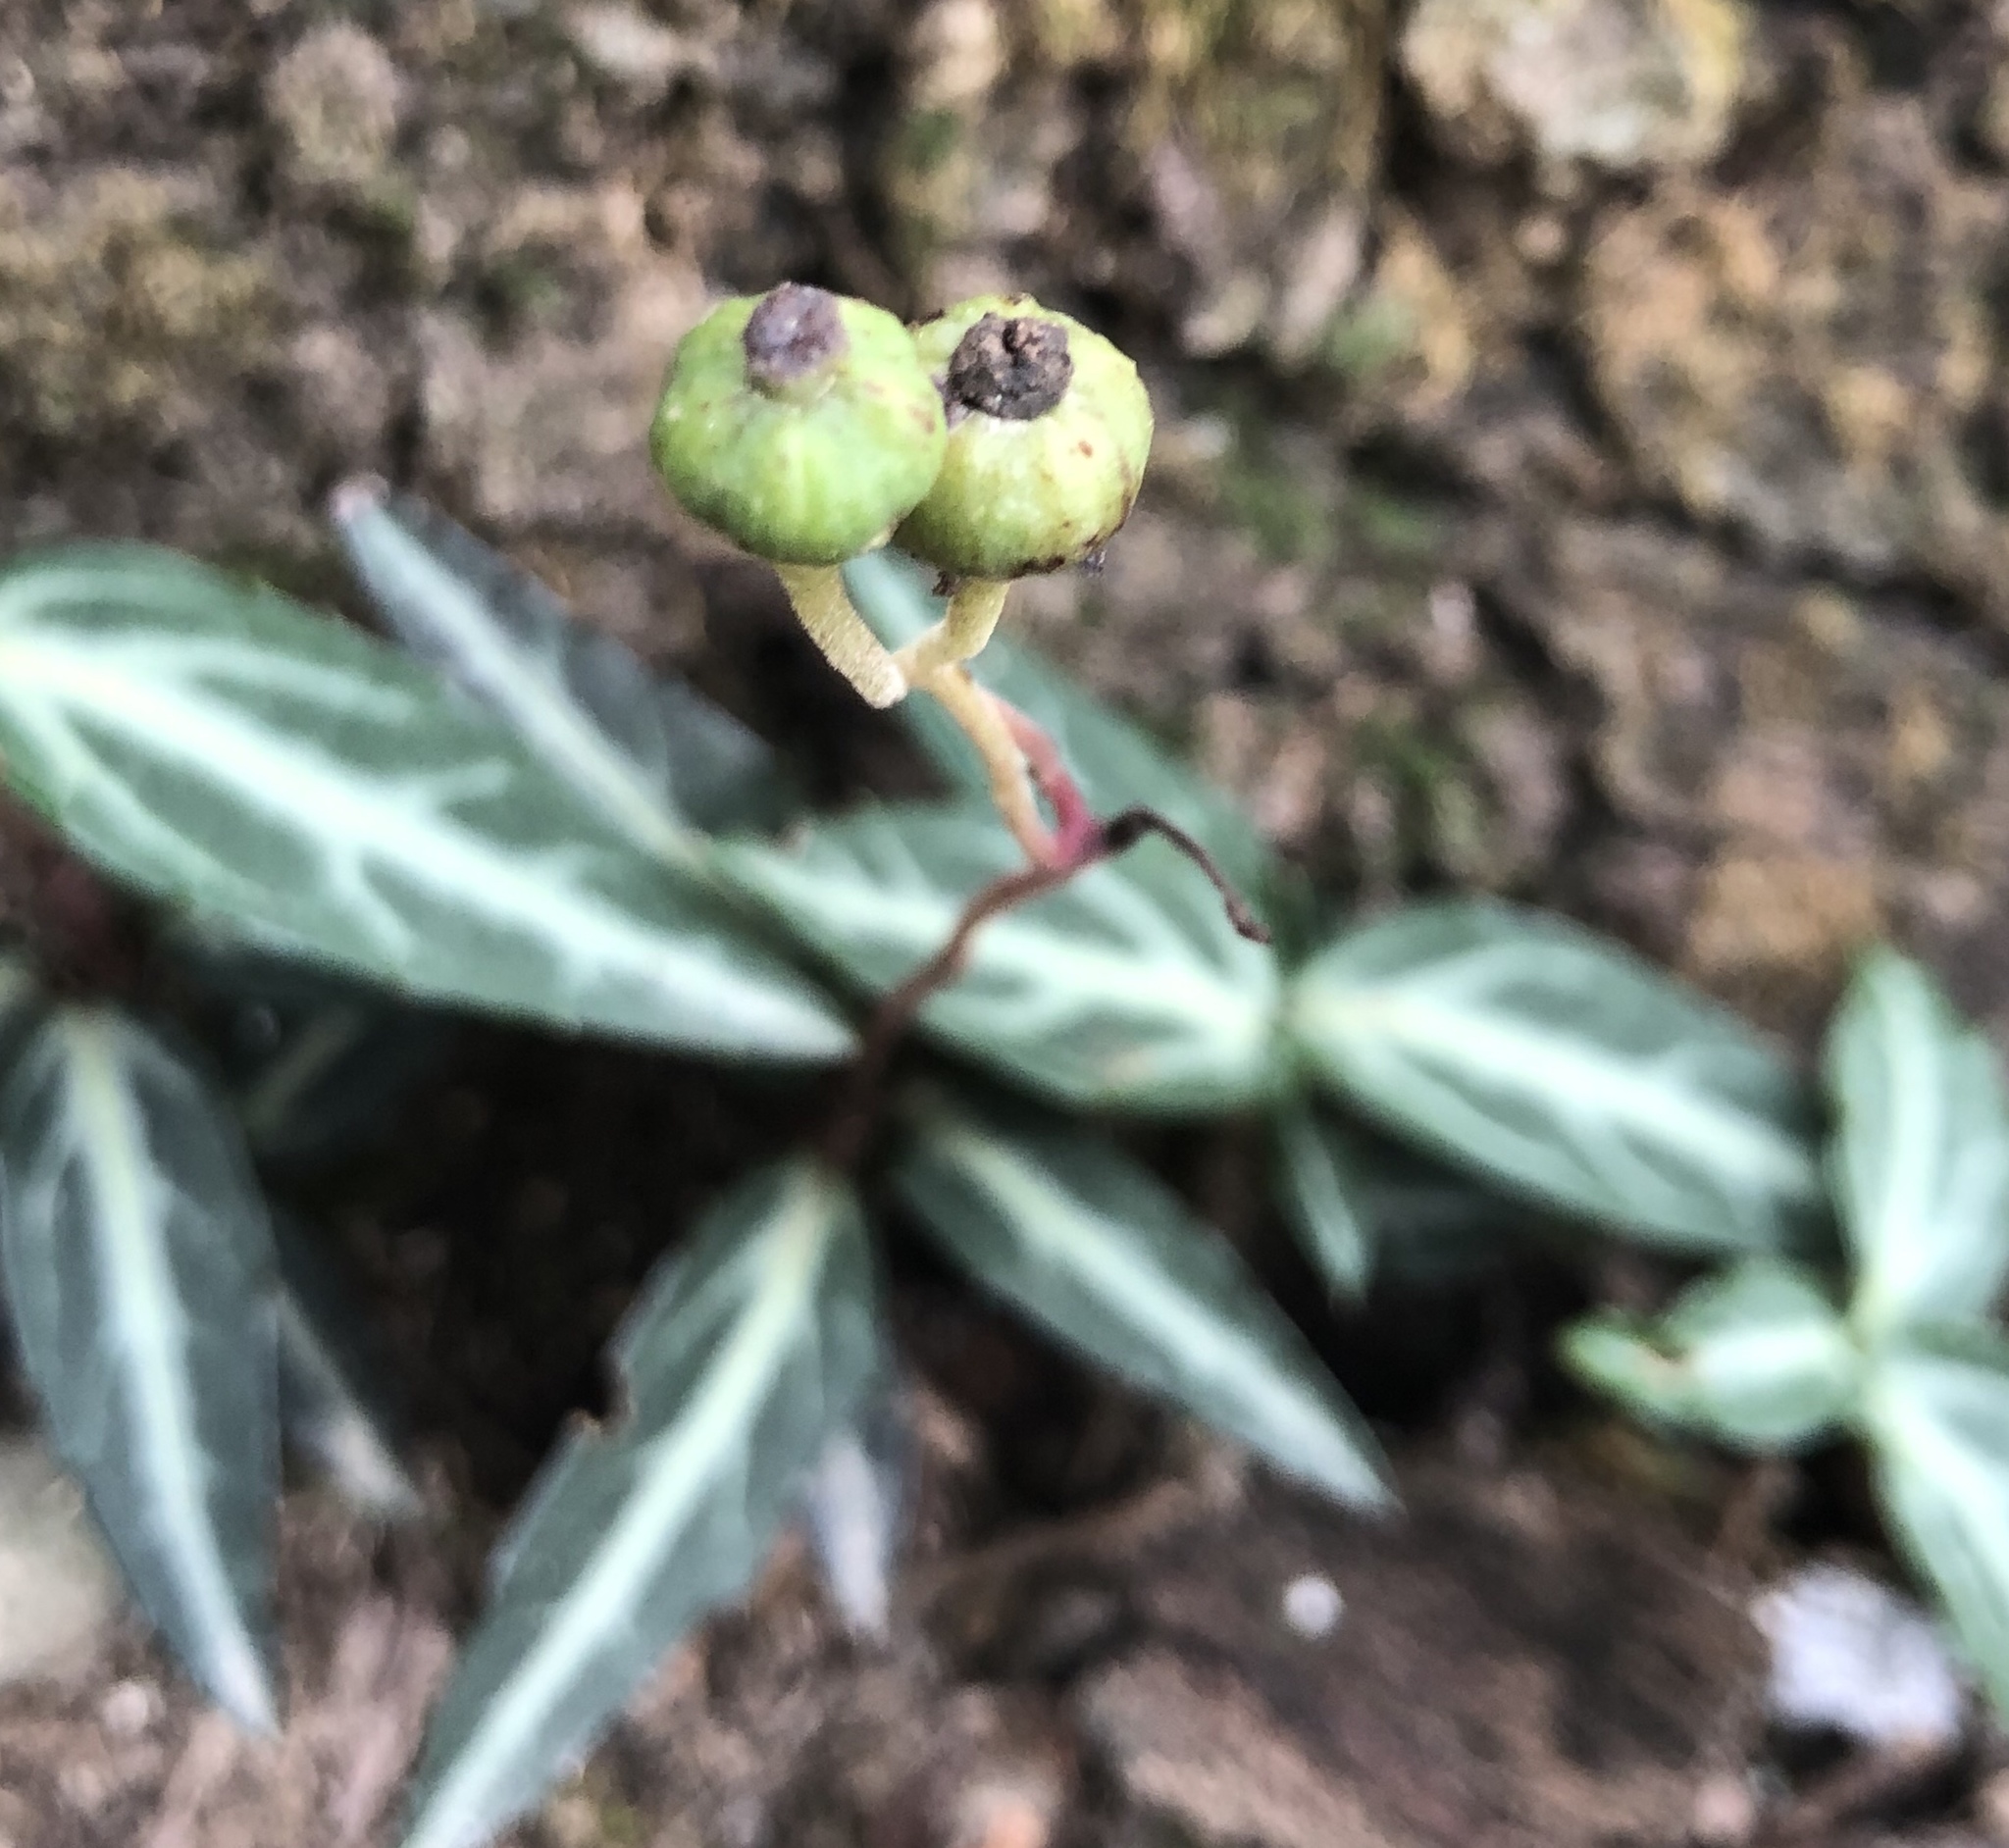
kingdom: Plantae
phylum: Tracheophyta
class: Magnoliopsida
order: Ericales
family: Ericaceae
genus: Chimaphila
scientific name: Chimaphila maculata
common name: Spotted pipsissewa
